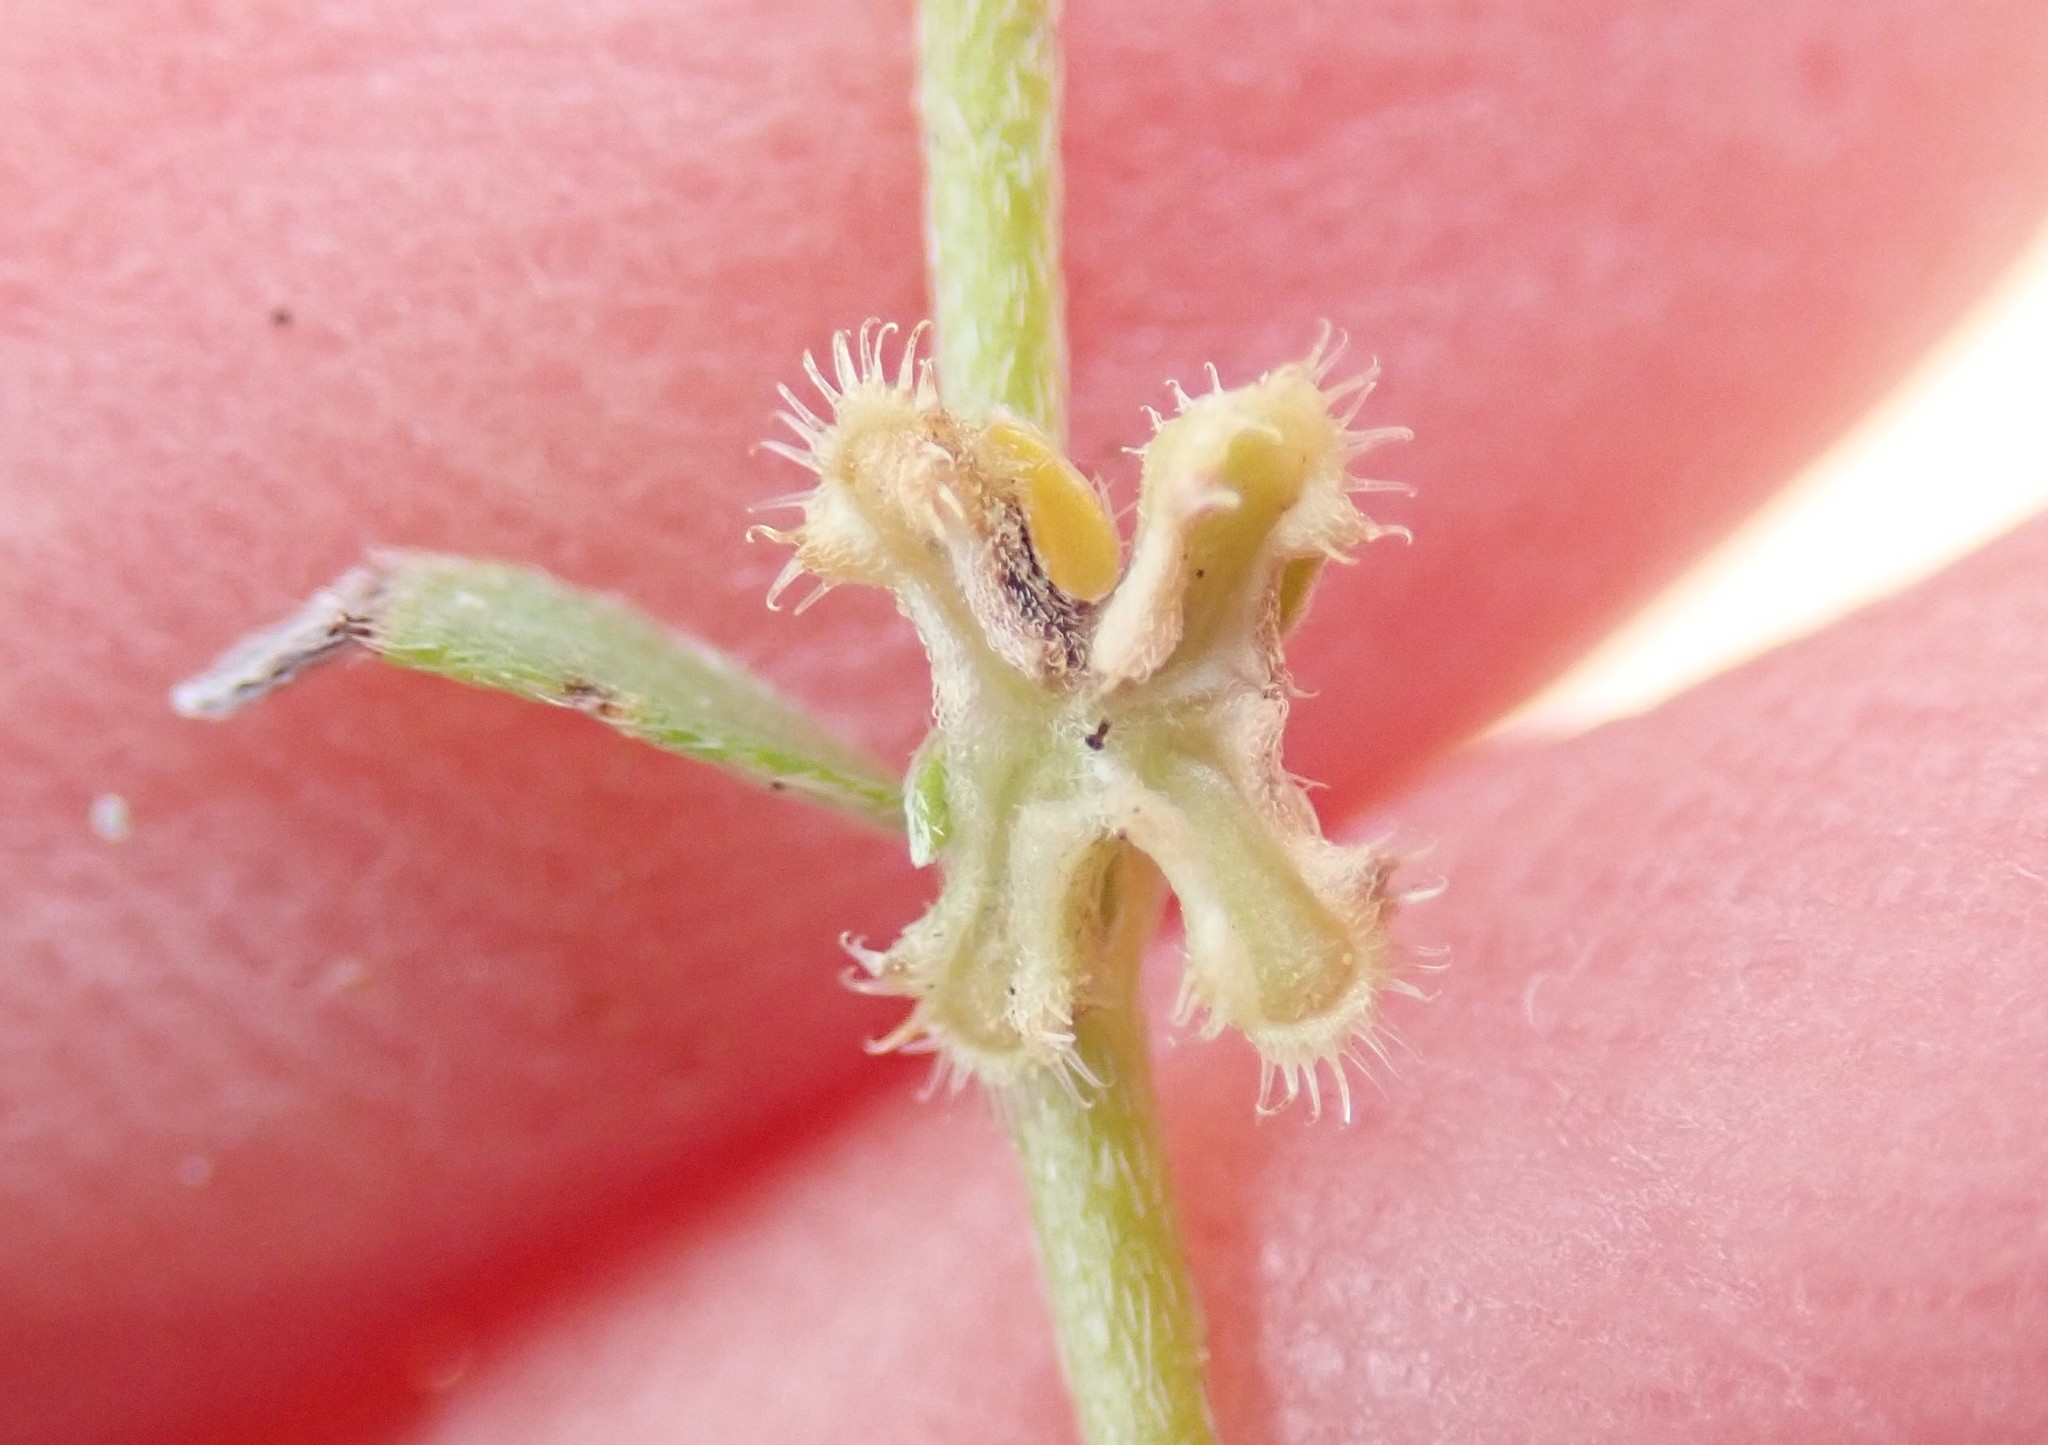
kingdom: Plantae
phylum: Tracheophyta
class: Magnoliopsida
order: Boraginales
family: Boraginaceae
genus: Pectocarya
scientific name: Pectocarya penicillata
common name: Short-leaved combseed
